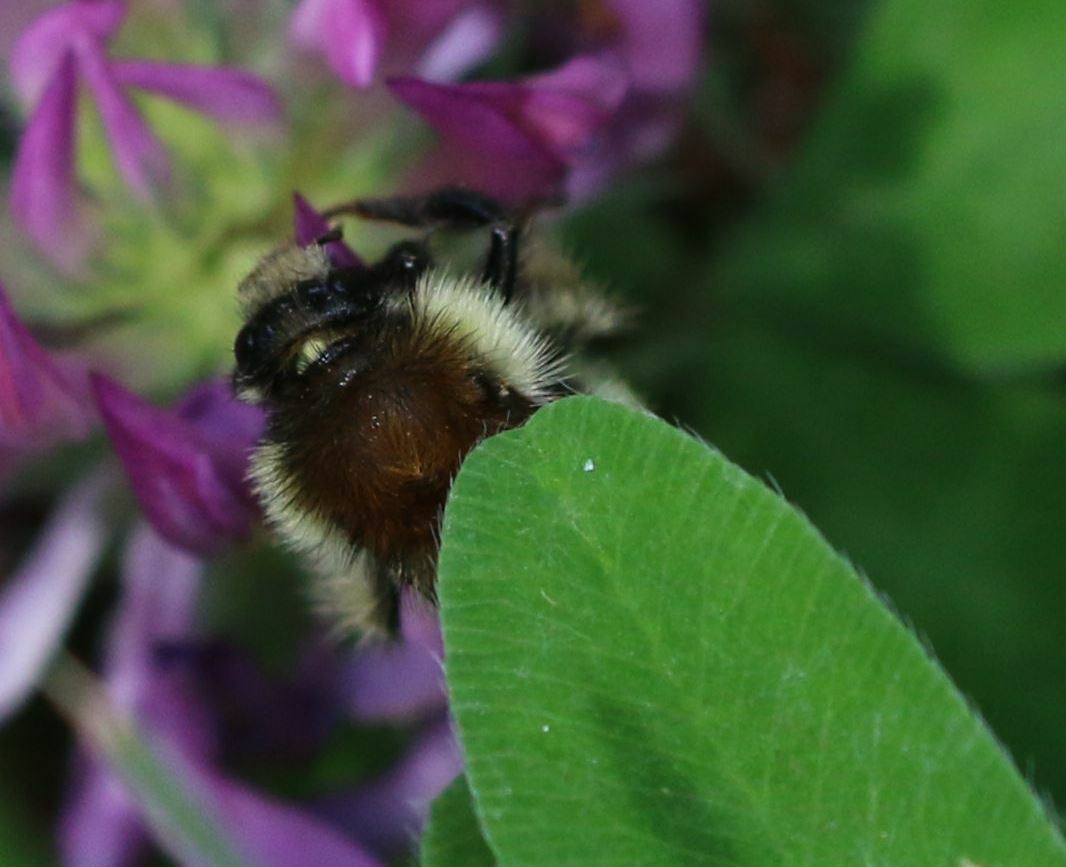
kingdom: Animalia
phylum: Arthropoda
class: Insecta
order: Hymenoptera
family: Apidae
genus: Bombus
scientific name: Bombus humilis
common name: Brown-banded carder-bee
